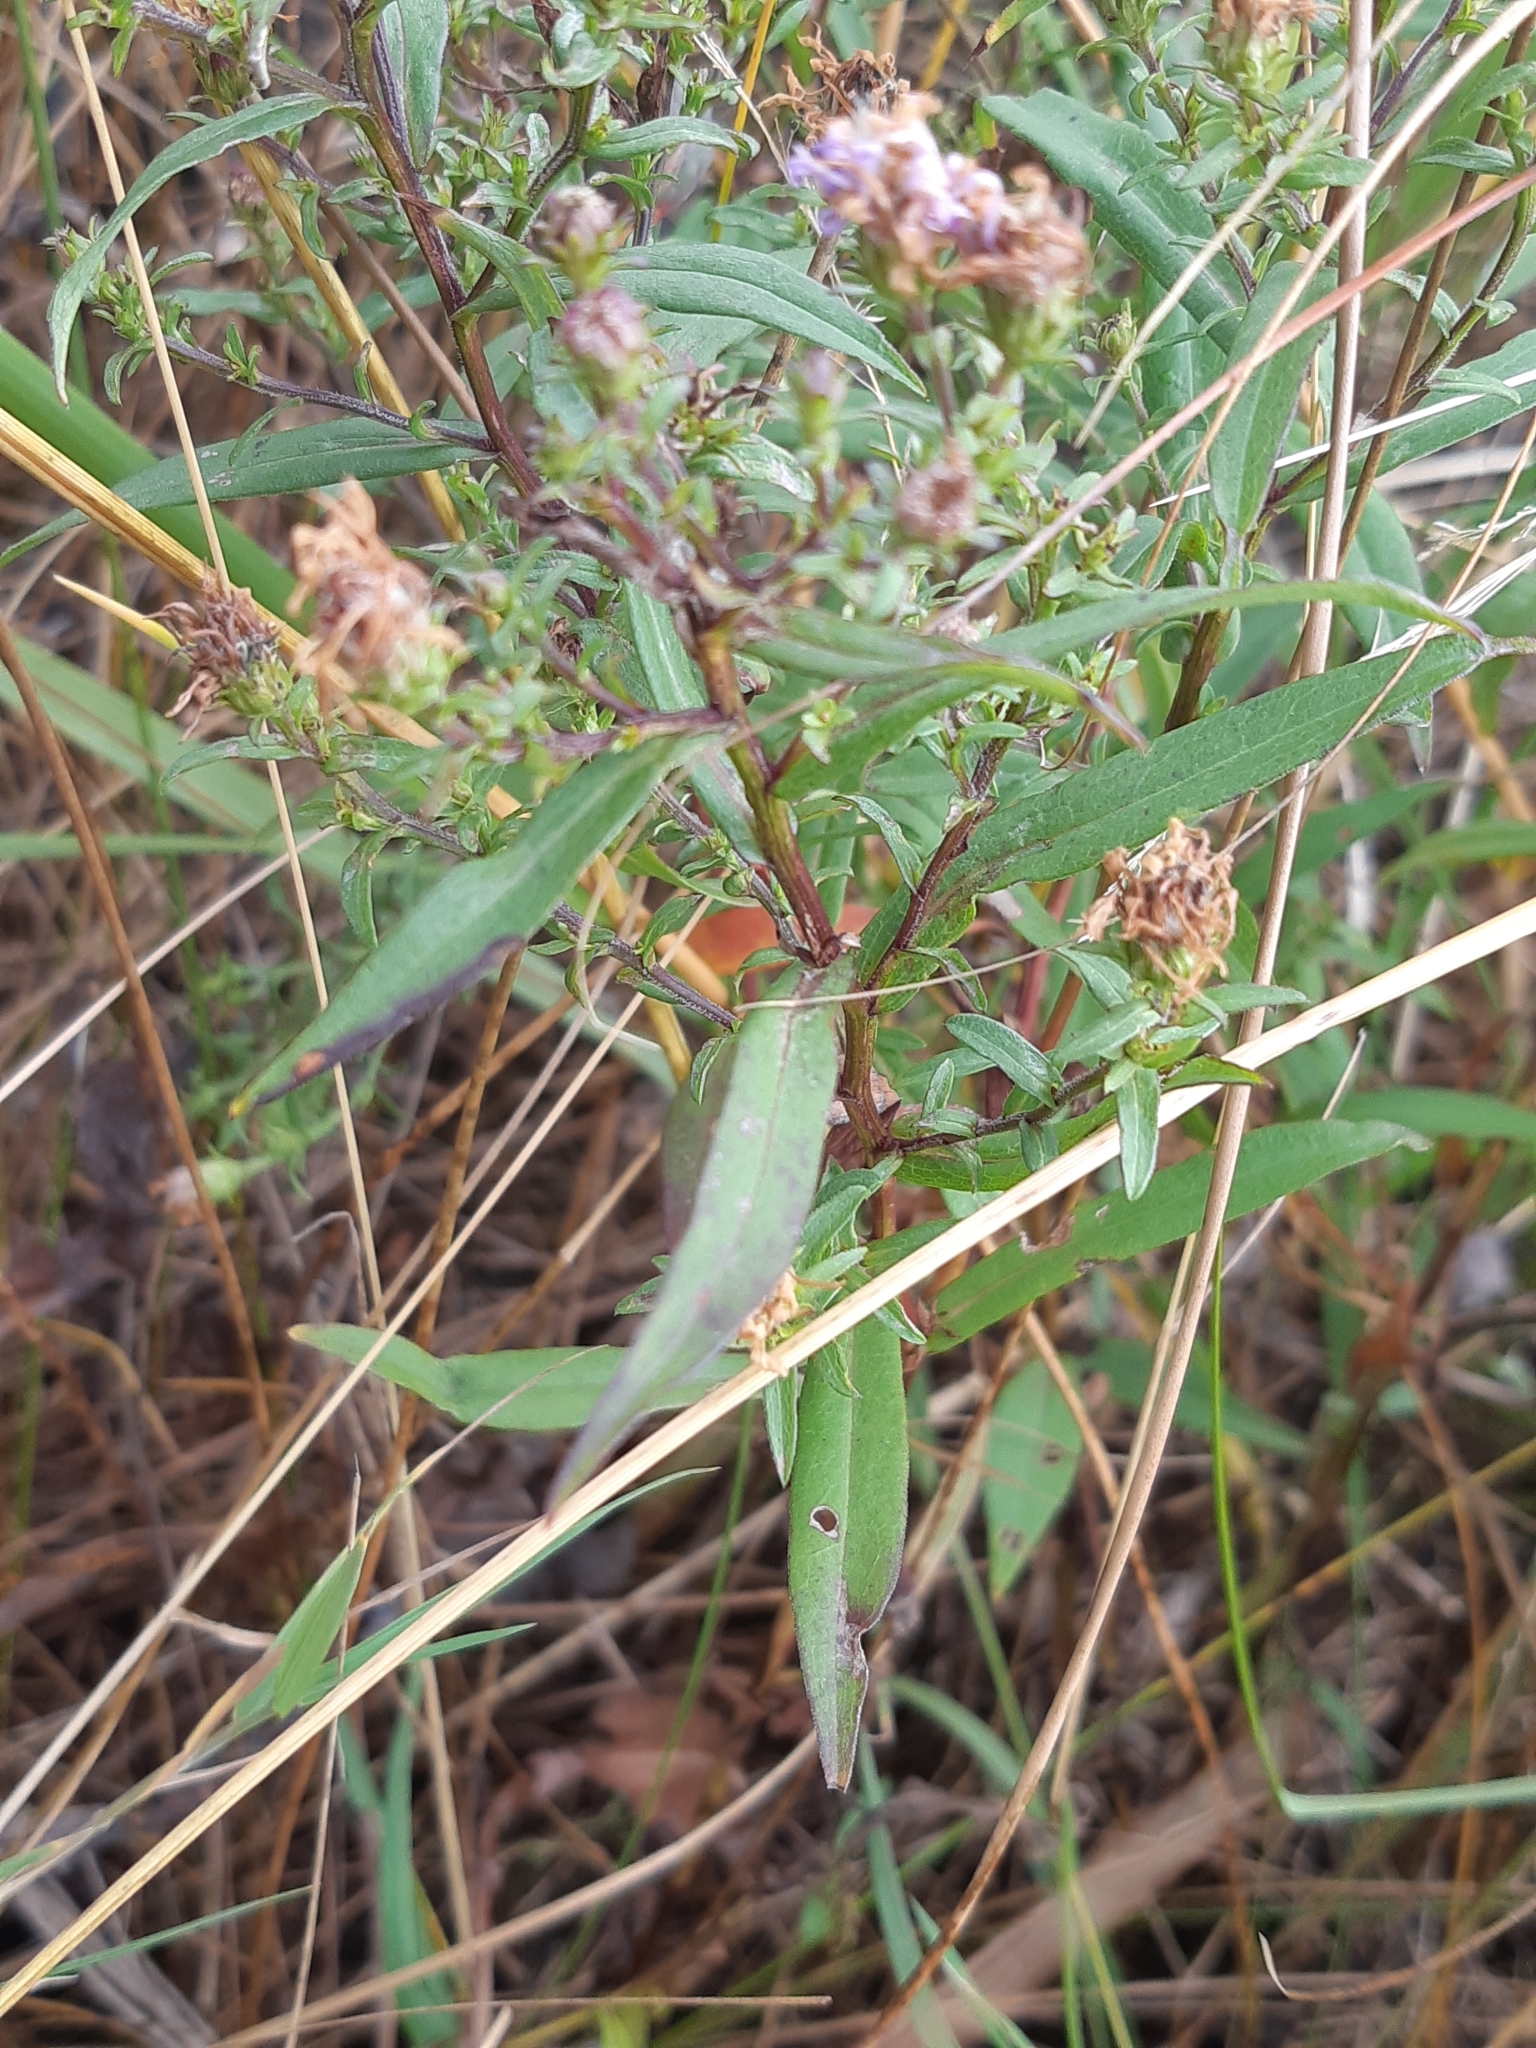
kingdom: Plantae
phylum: Tracheophyta
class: Magnoliopsida
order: Asterales
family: Asteraceae
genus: Symphyotrichum
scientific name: Symphyotrichum novi-belgii
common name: Michaelmas daisy
